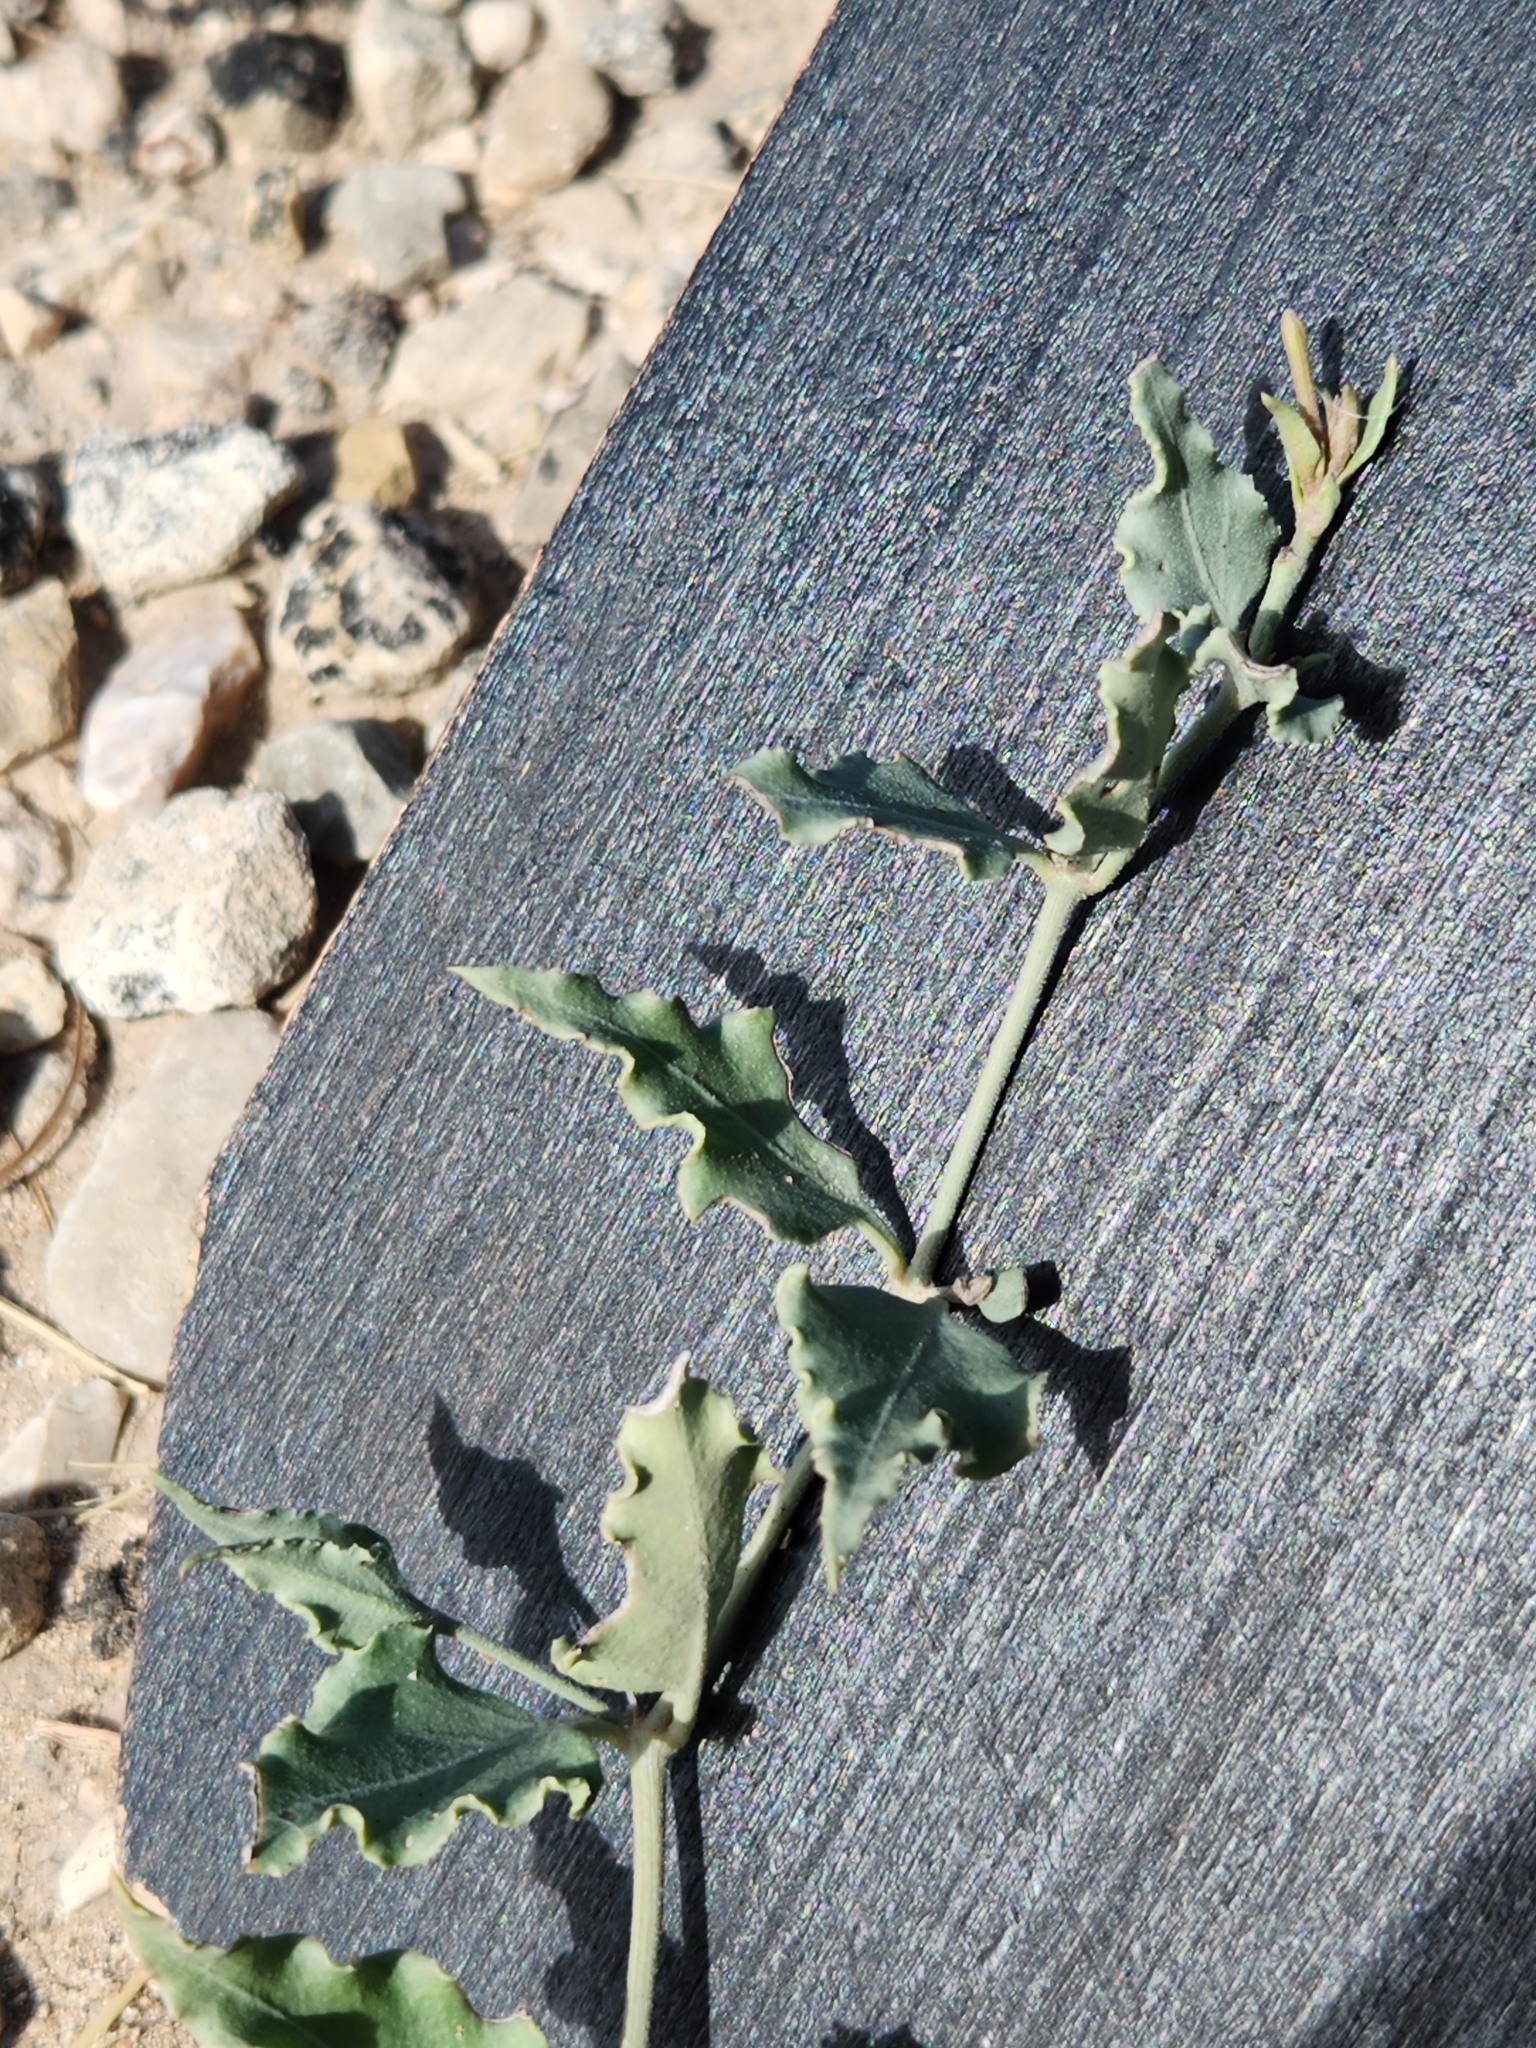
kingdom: Plantae
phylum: Tracheophyta
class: Magnoliopsida
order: Caryophyllales
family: Nyctaginaceae
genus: Acleisanthes
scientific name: Acleisanthes longiflora
